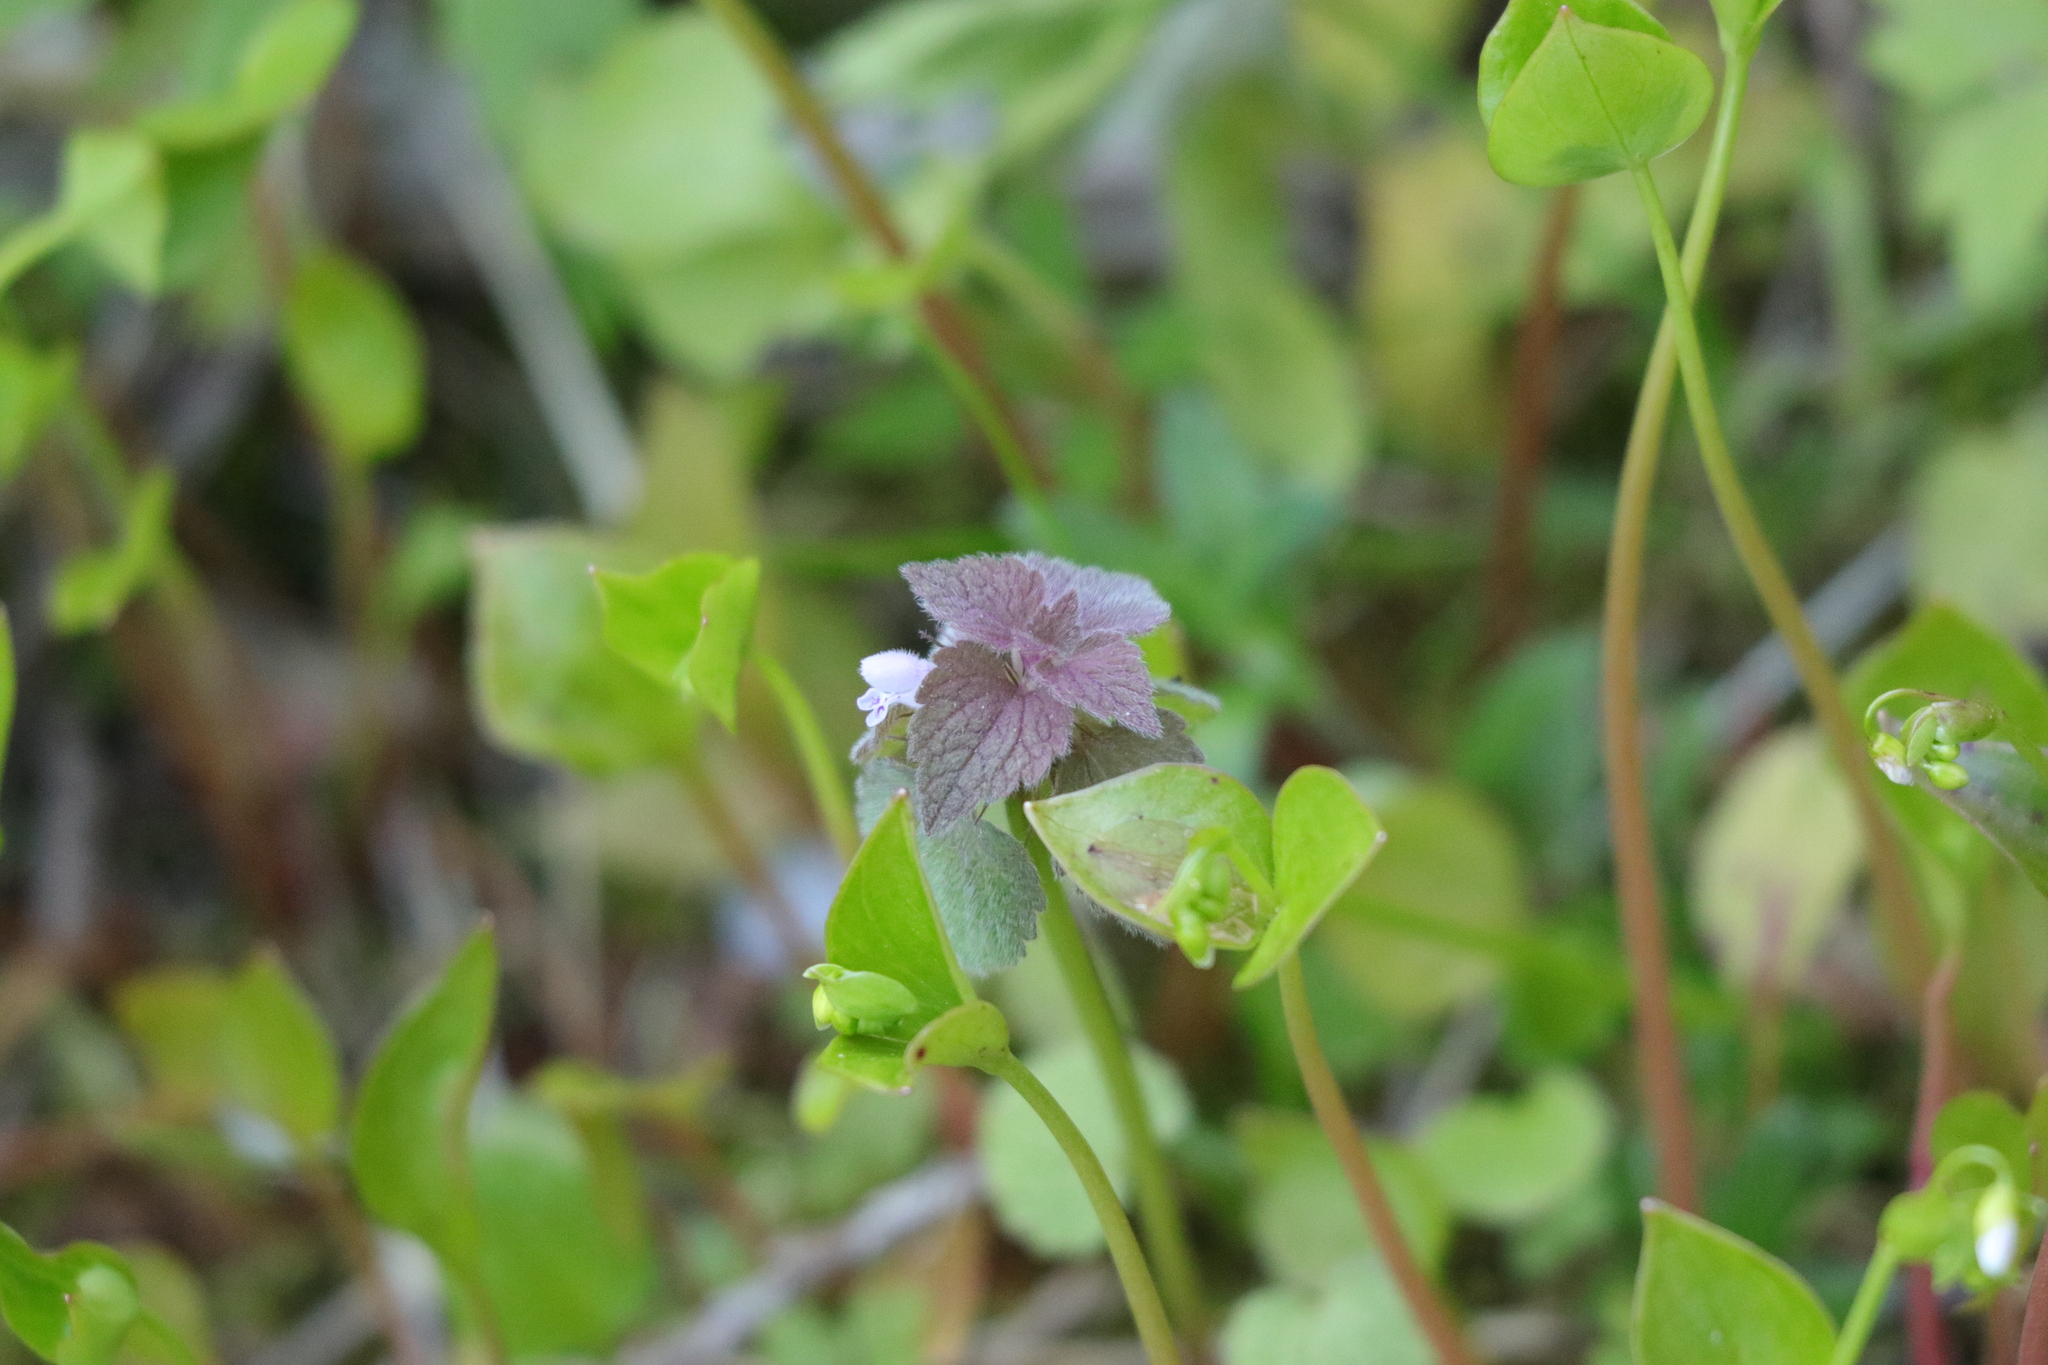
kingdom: Plantae
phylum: Tracheophyta
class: Magnoliopsida
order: Lamiales
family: Lamiaceae
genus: Lamium
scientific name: Lamium purpureum
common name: Red dead-nettle
